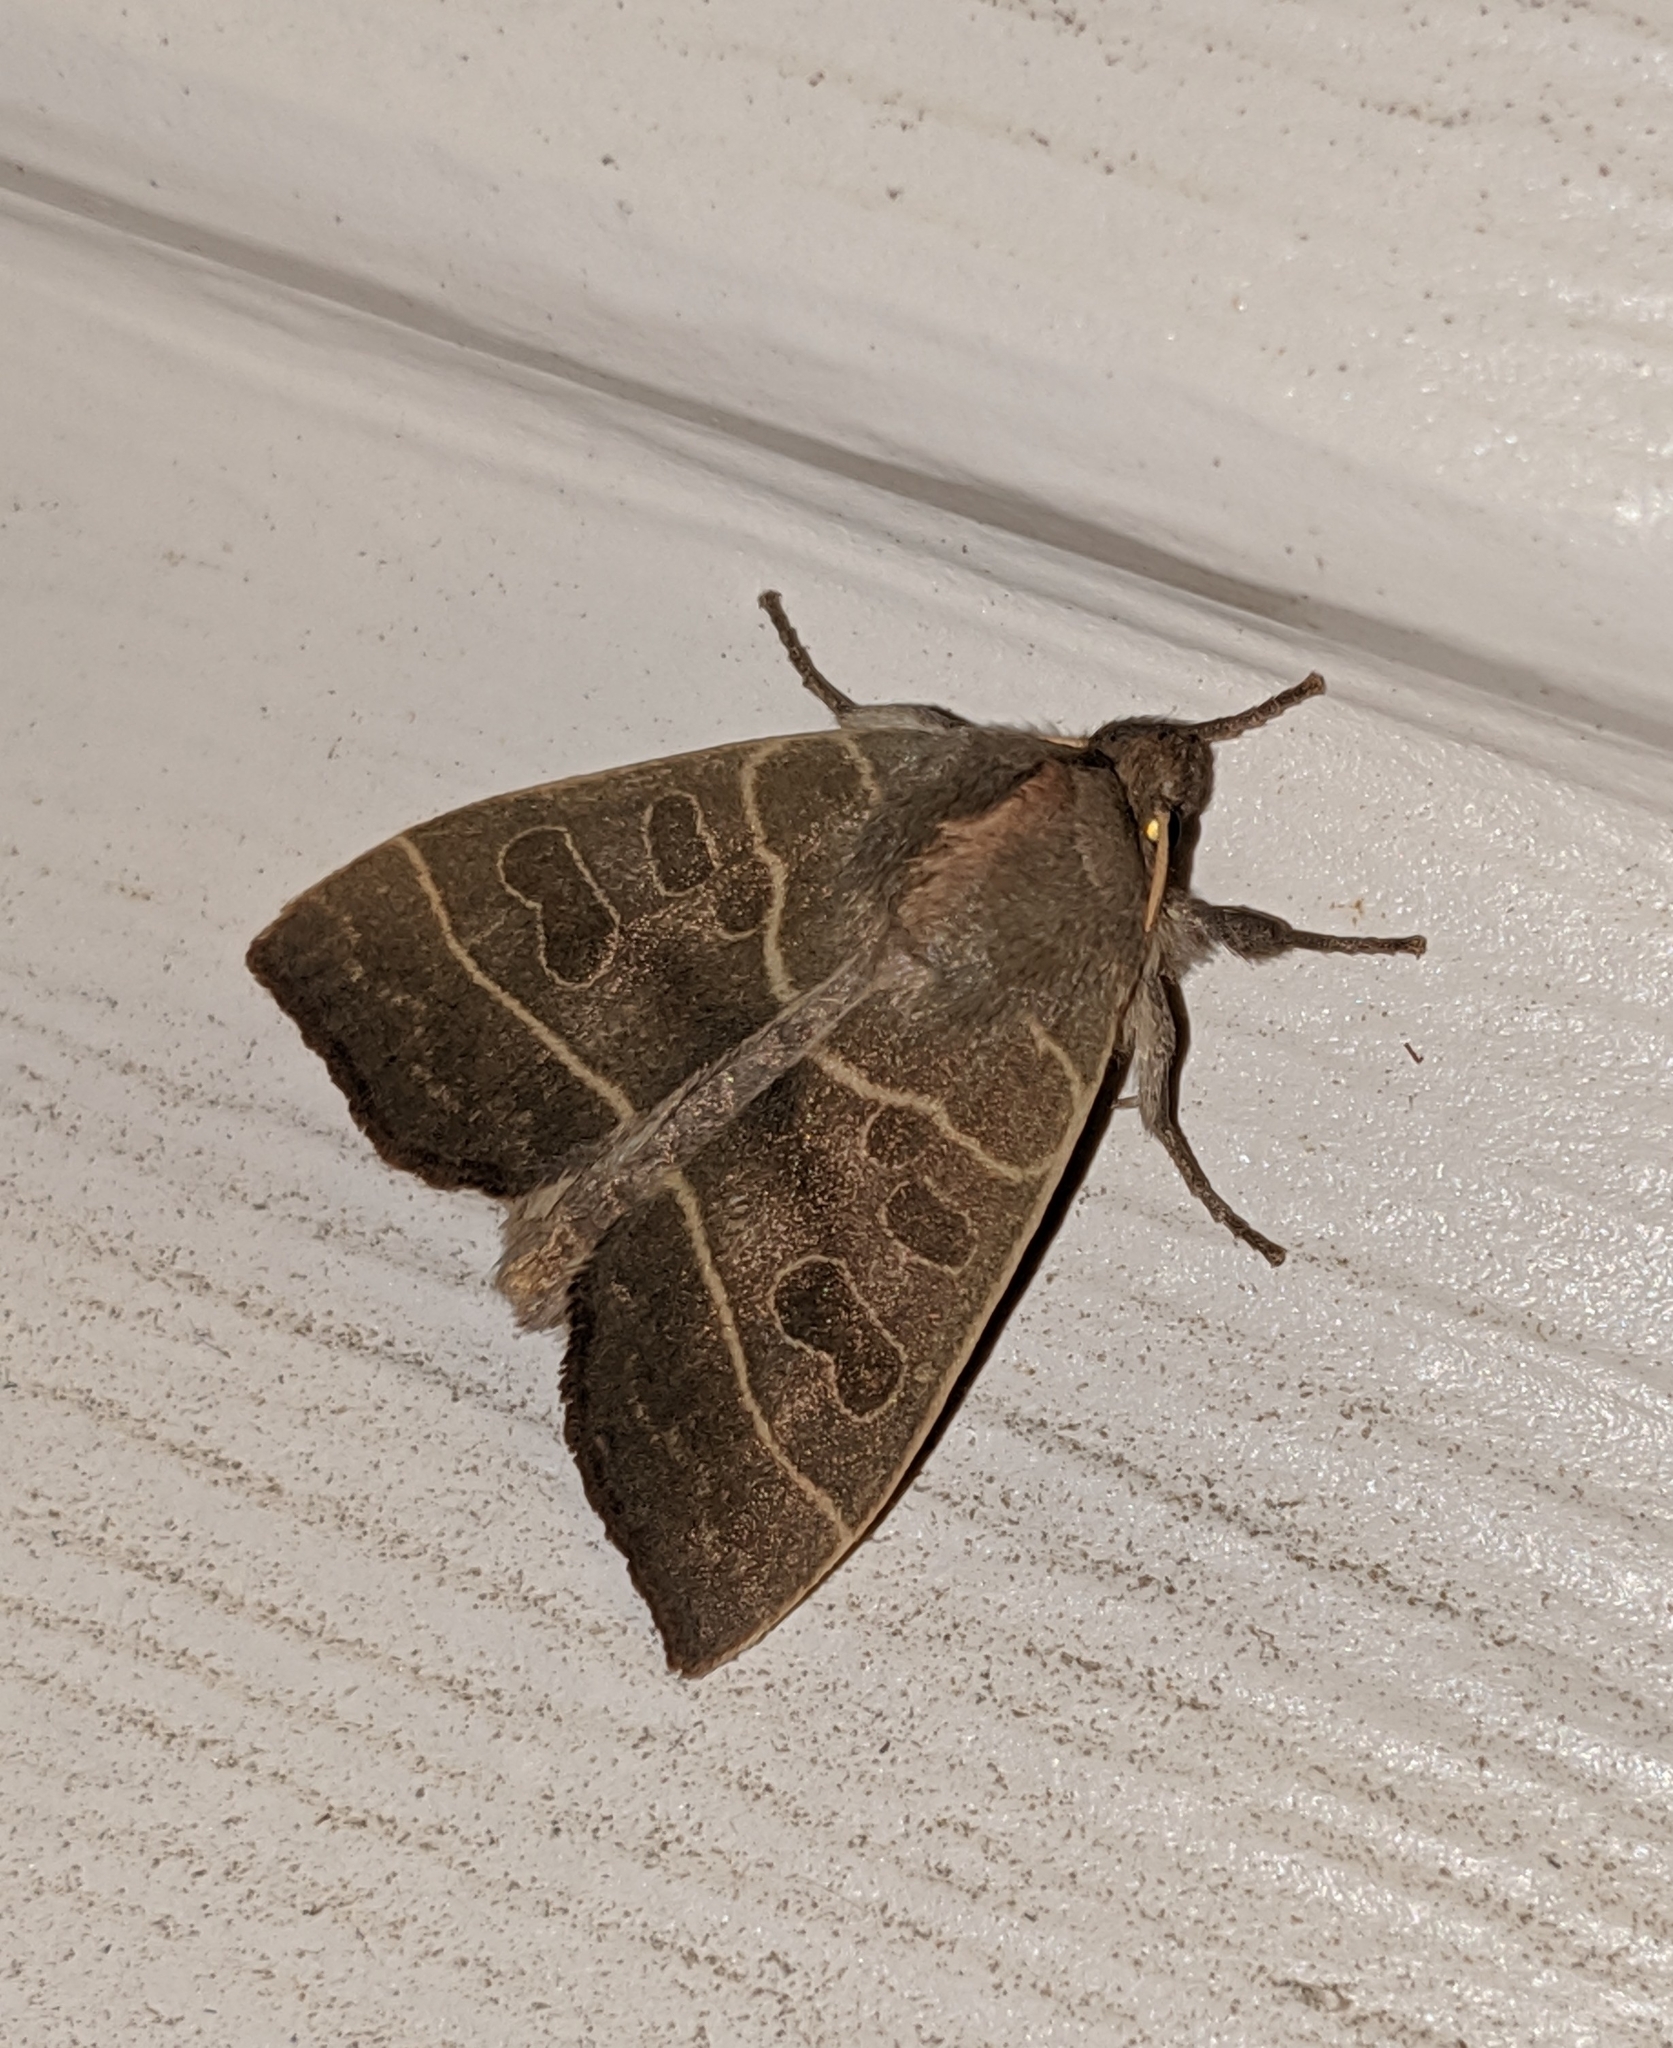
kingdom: Animalia
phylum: Arthropoda
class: Insecta
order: Lepidoptera
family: Noctuidae
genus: Ipimorpha
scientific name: Ipimorpha pleonectusa
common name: Even-lined sallow
